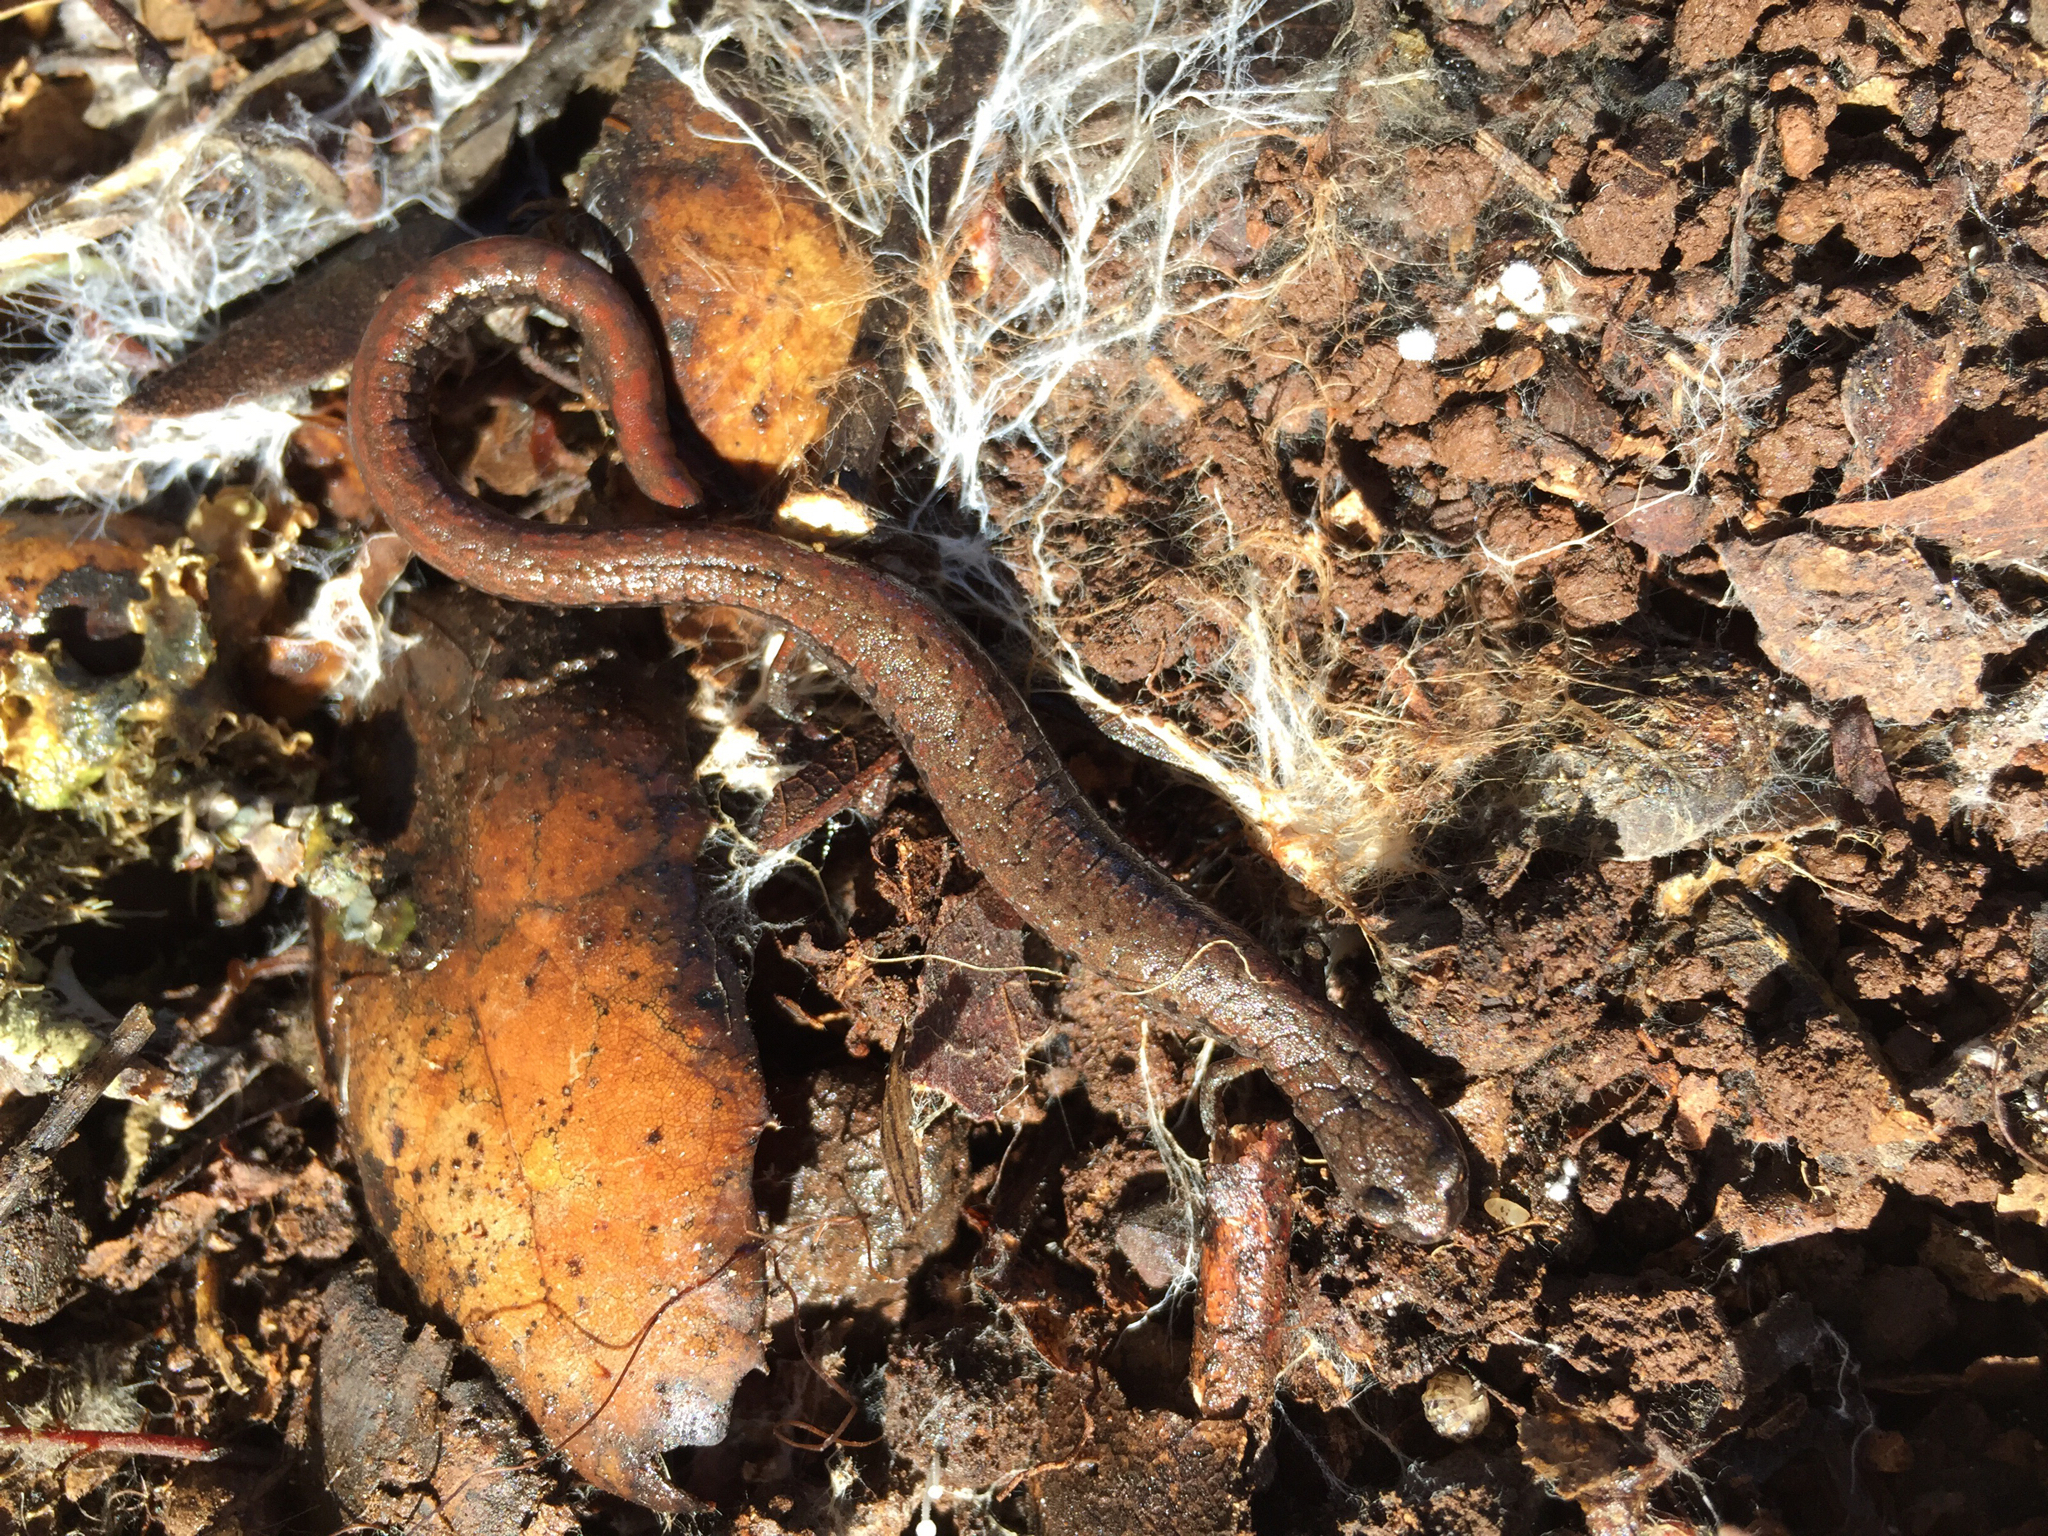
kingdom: Animalia
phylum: Chordata
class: Amphibia
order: Caudata
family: Plethodontidae
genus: Batrachoseps
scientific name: Batrachoseps attenuatus
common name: California slender salamander
